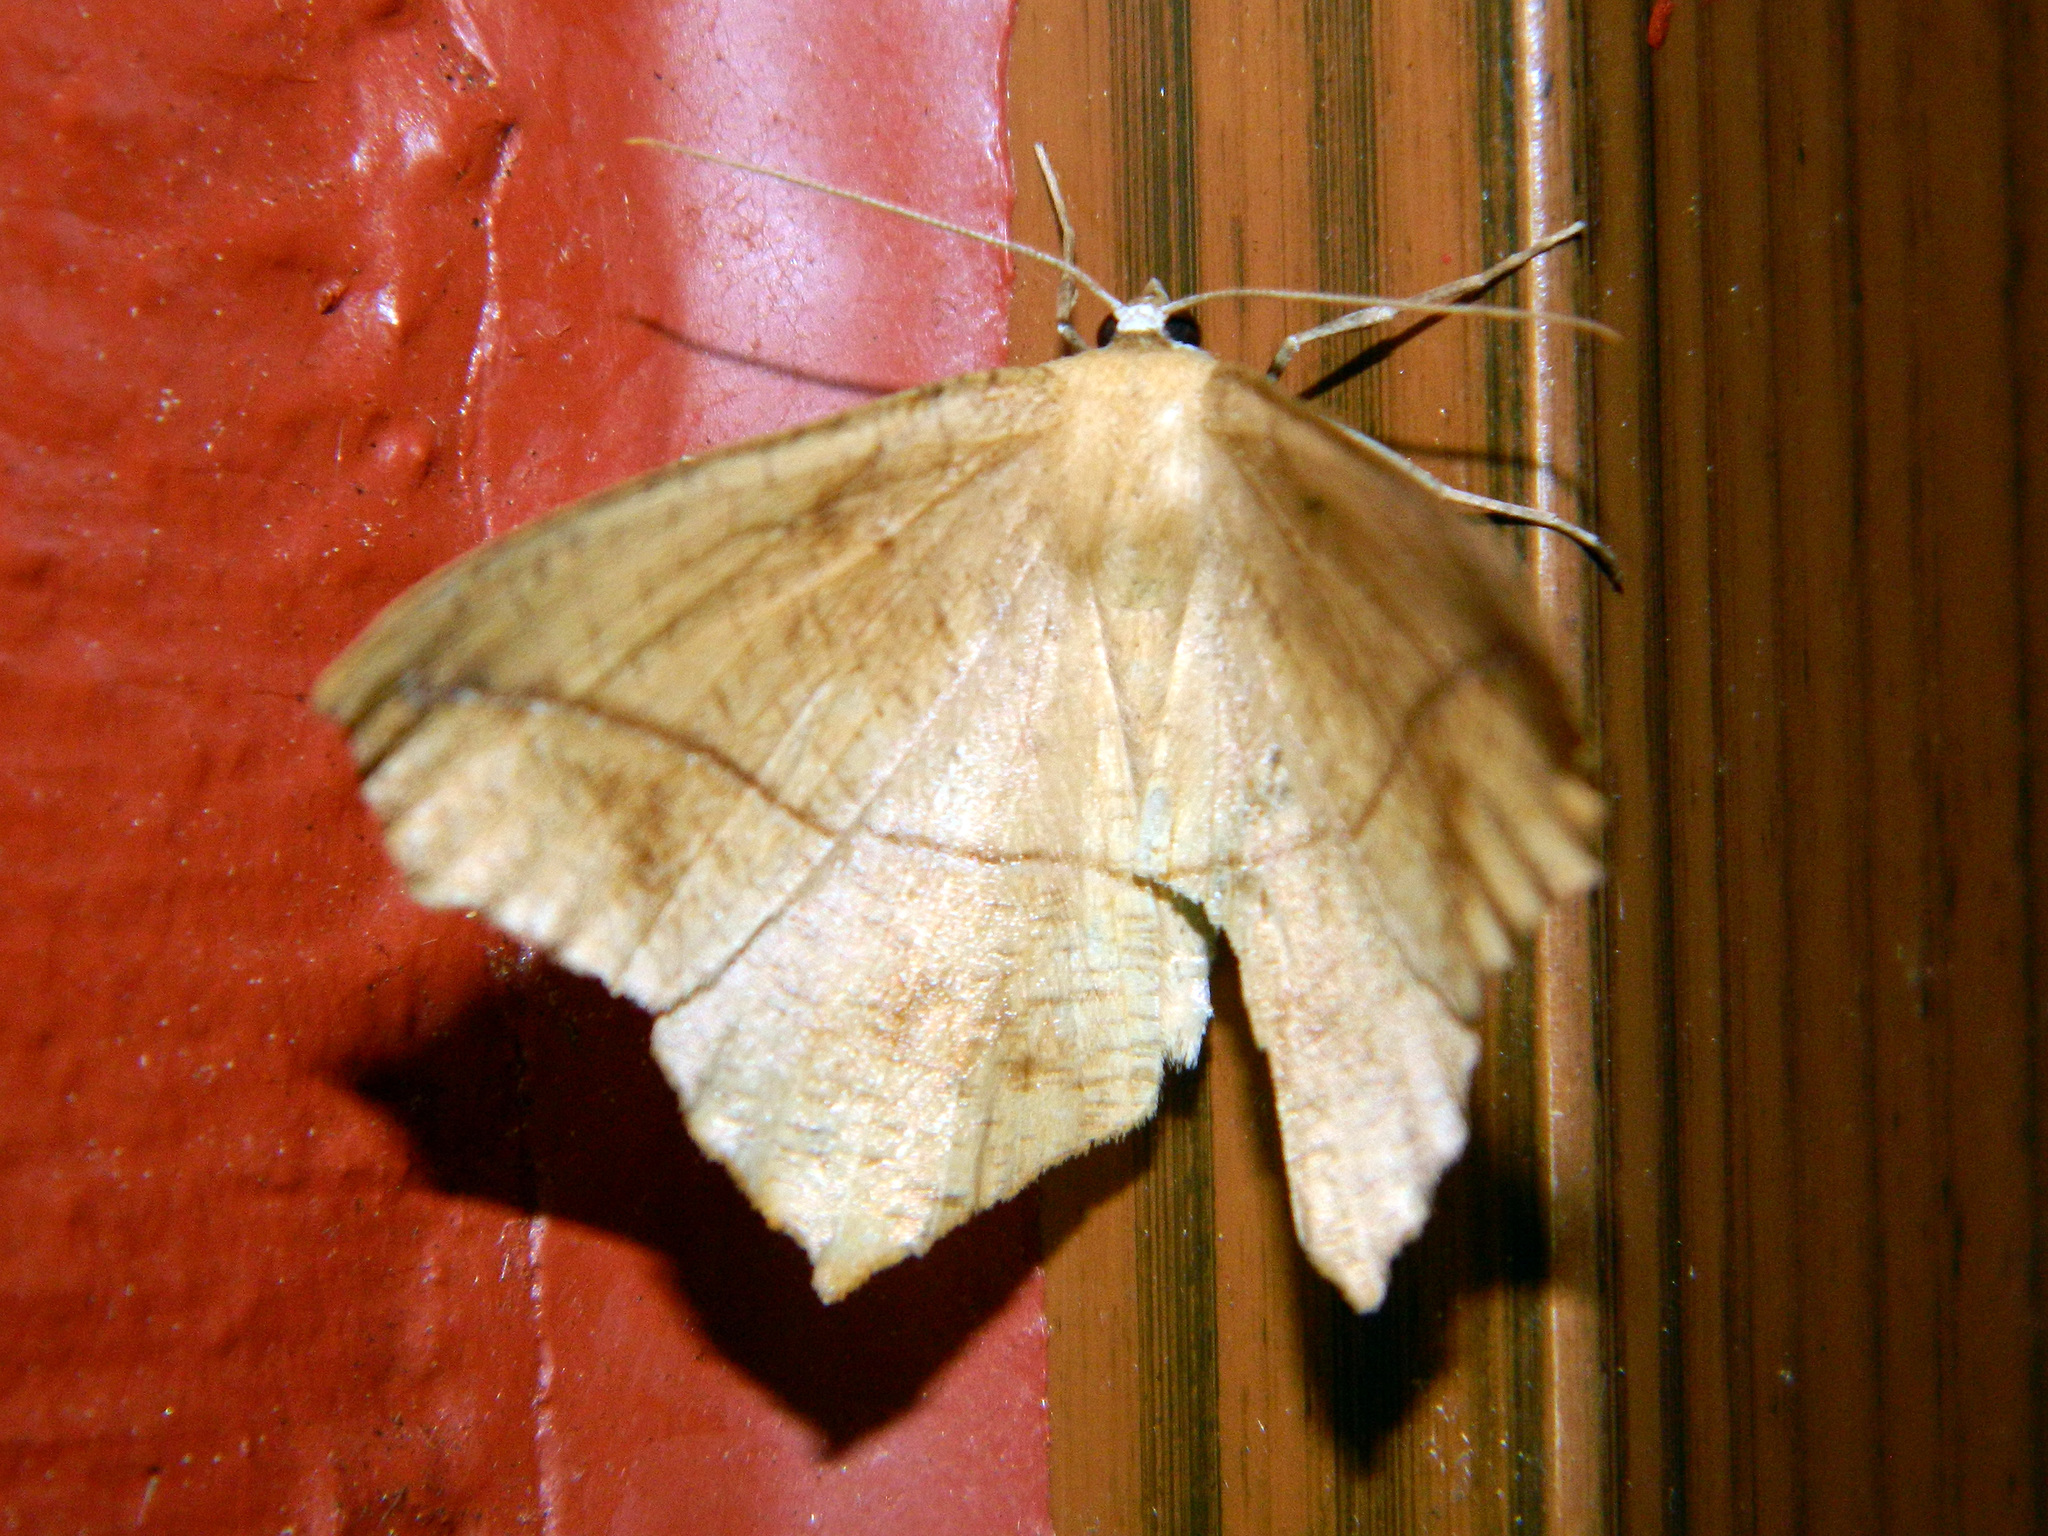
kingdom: Animalia
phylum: Arthropoda
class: Insecta
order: Lepidoptera
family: Geometridae
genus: Prochoerodes
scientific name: Prochoerodes lineola
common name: Large maple spanworm
